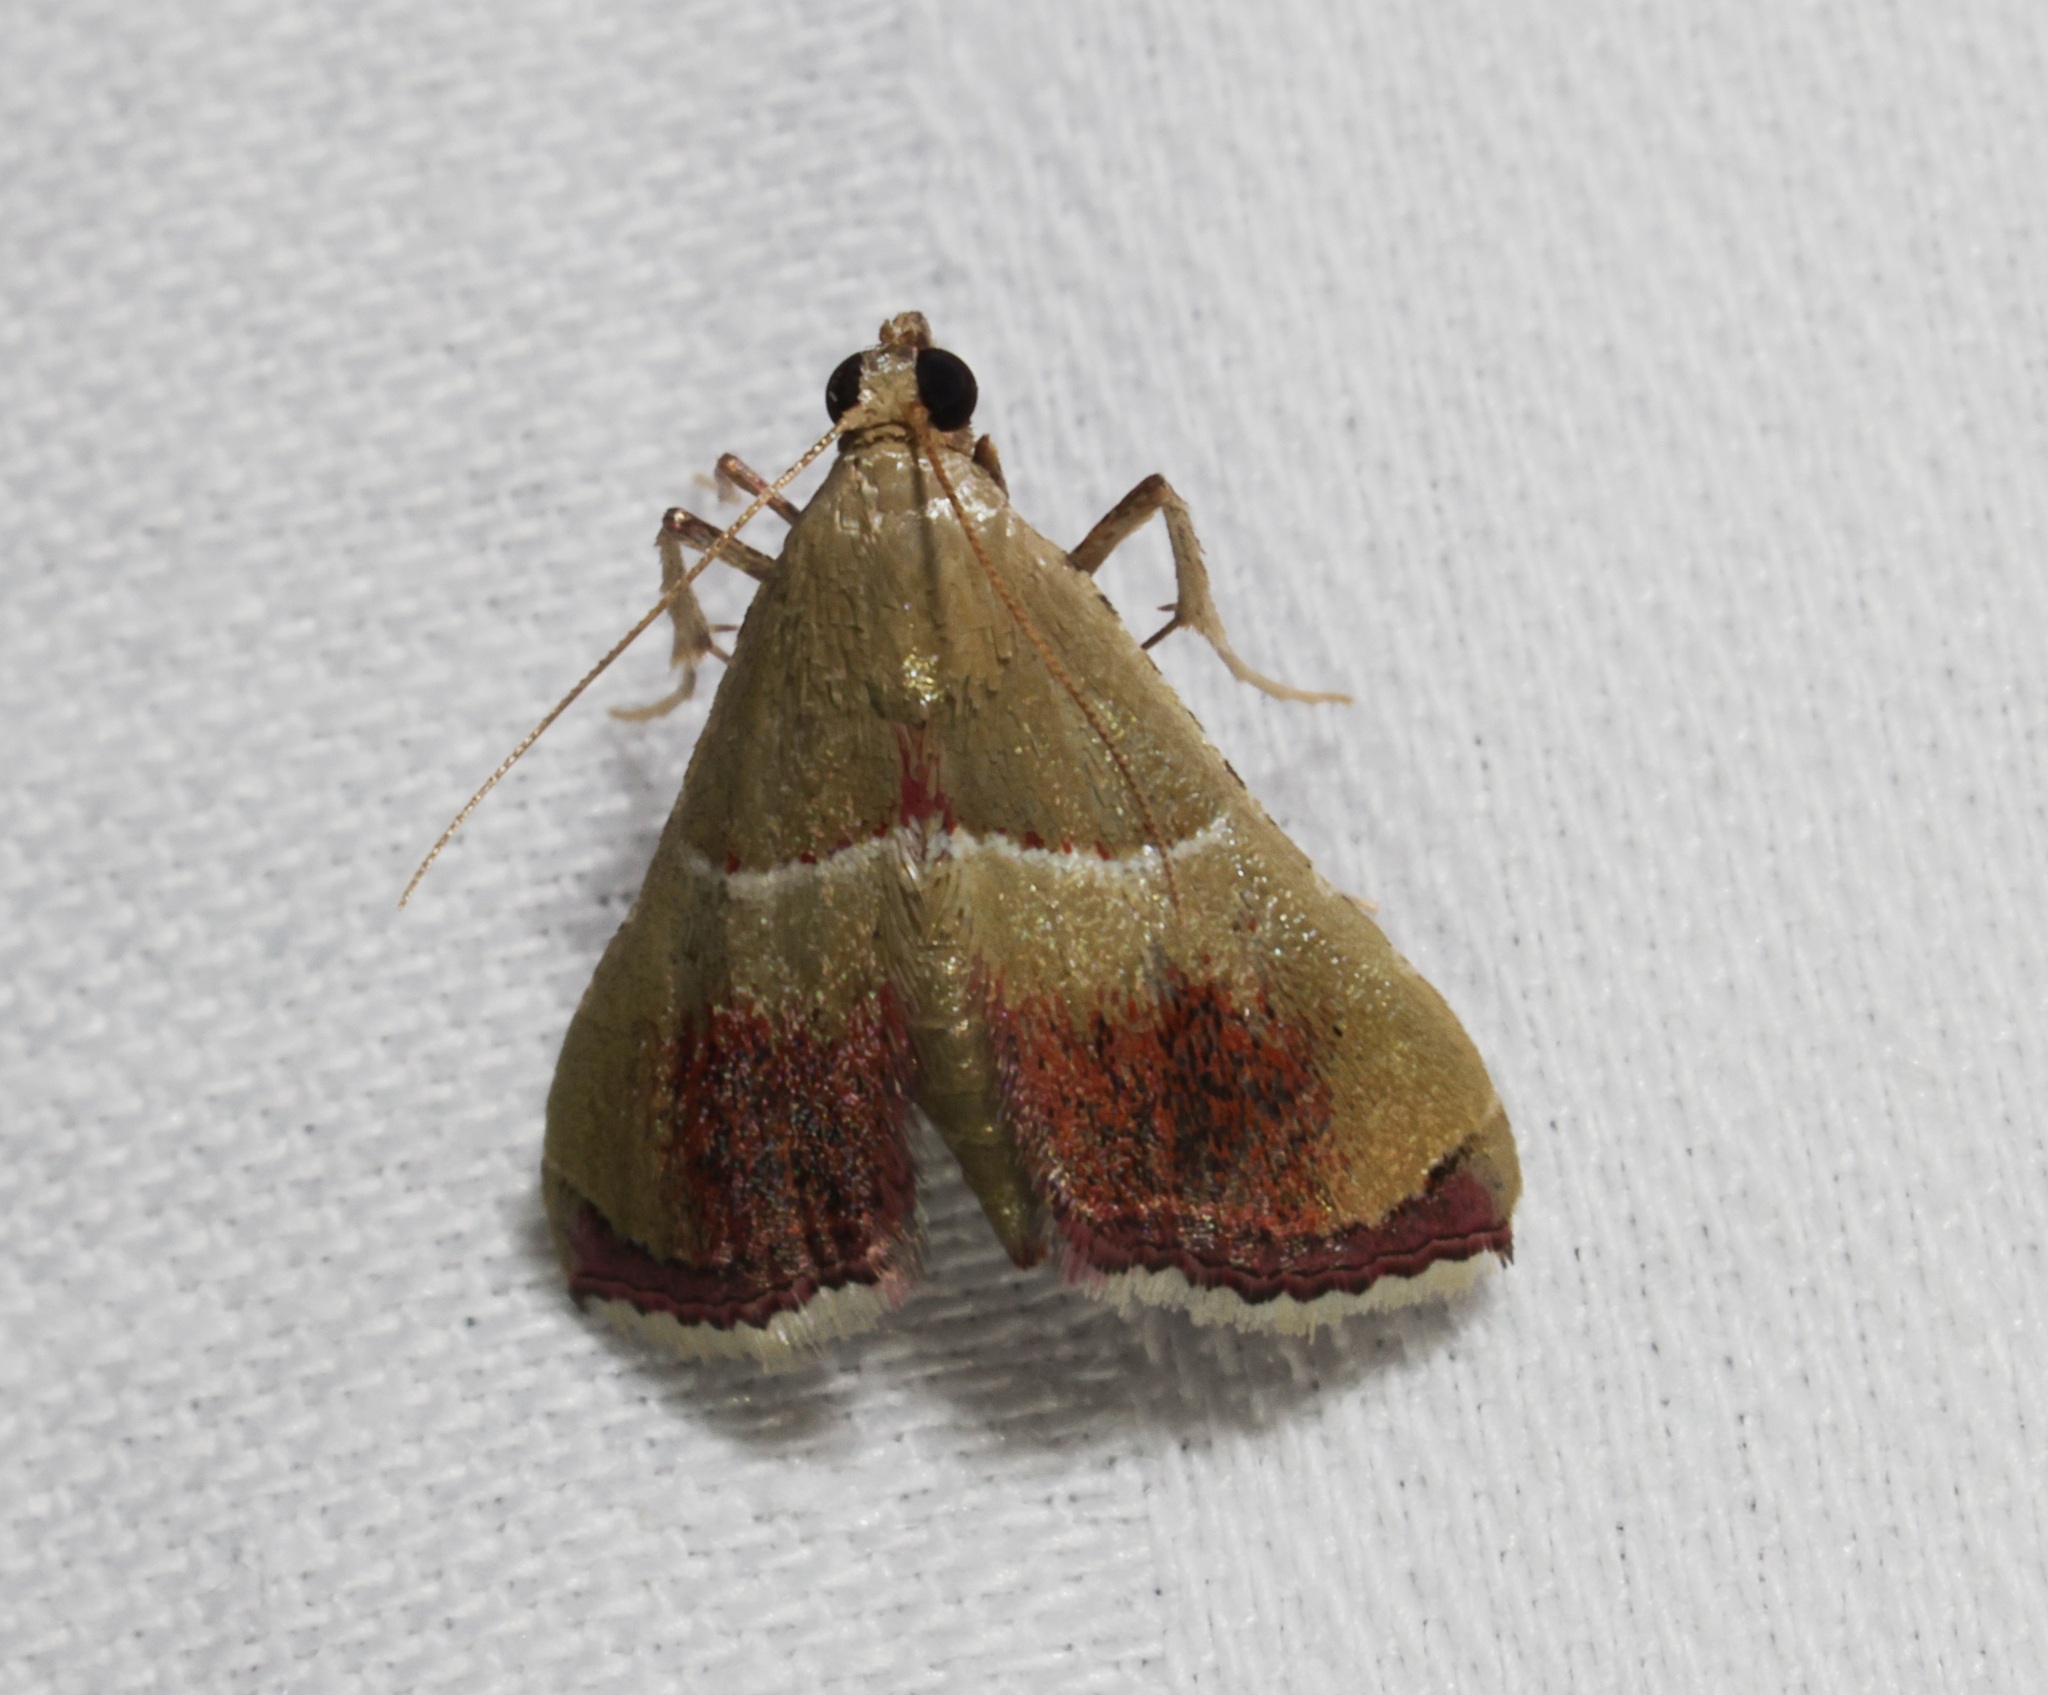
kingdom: Animalia
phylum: Arthropoda
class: Insecta
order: Lepidoptera
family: Pyralidae
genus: Endotricha
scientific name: Endotricha repandalis
